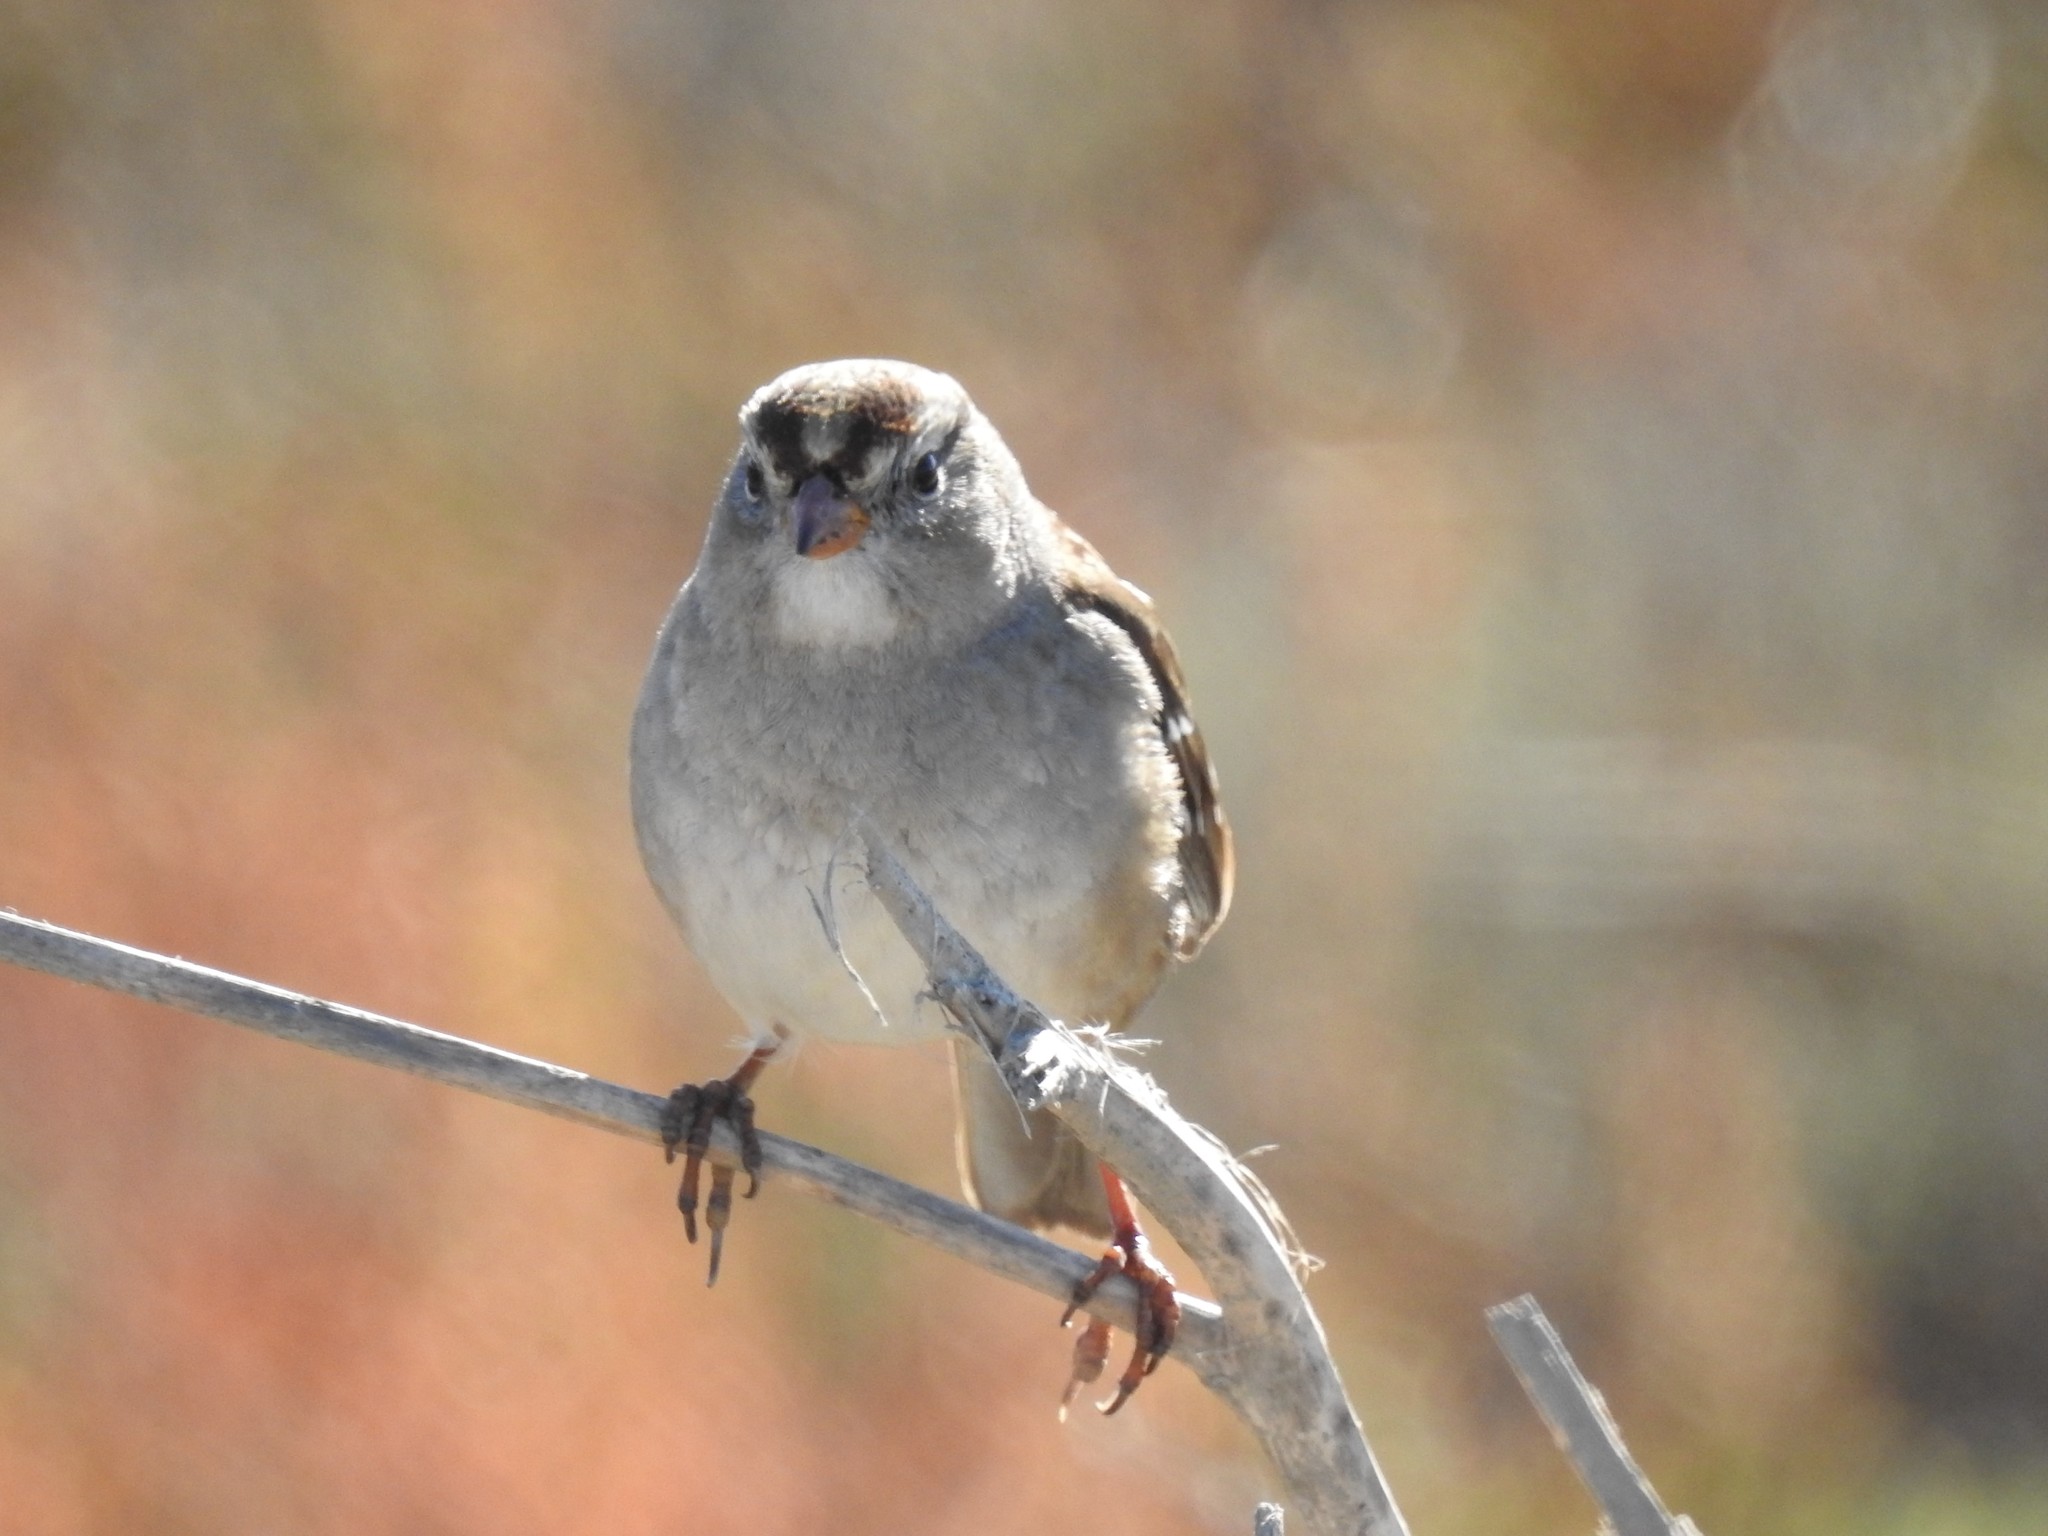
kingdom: Animalia
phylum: Chordata
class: Aves
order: Passeriformes
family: Passerellidae
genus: Zonotrichia
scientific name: Zonotrichia leucophrys
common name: White-crowned sparrow
